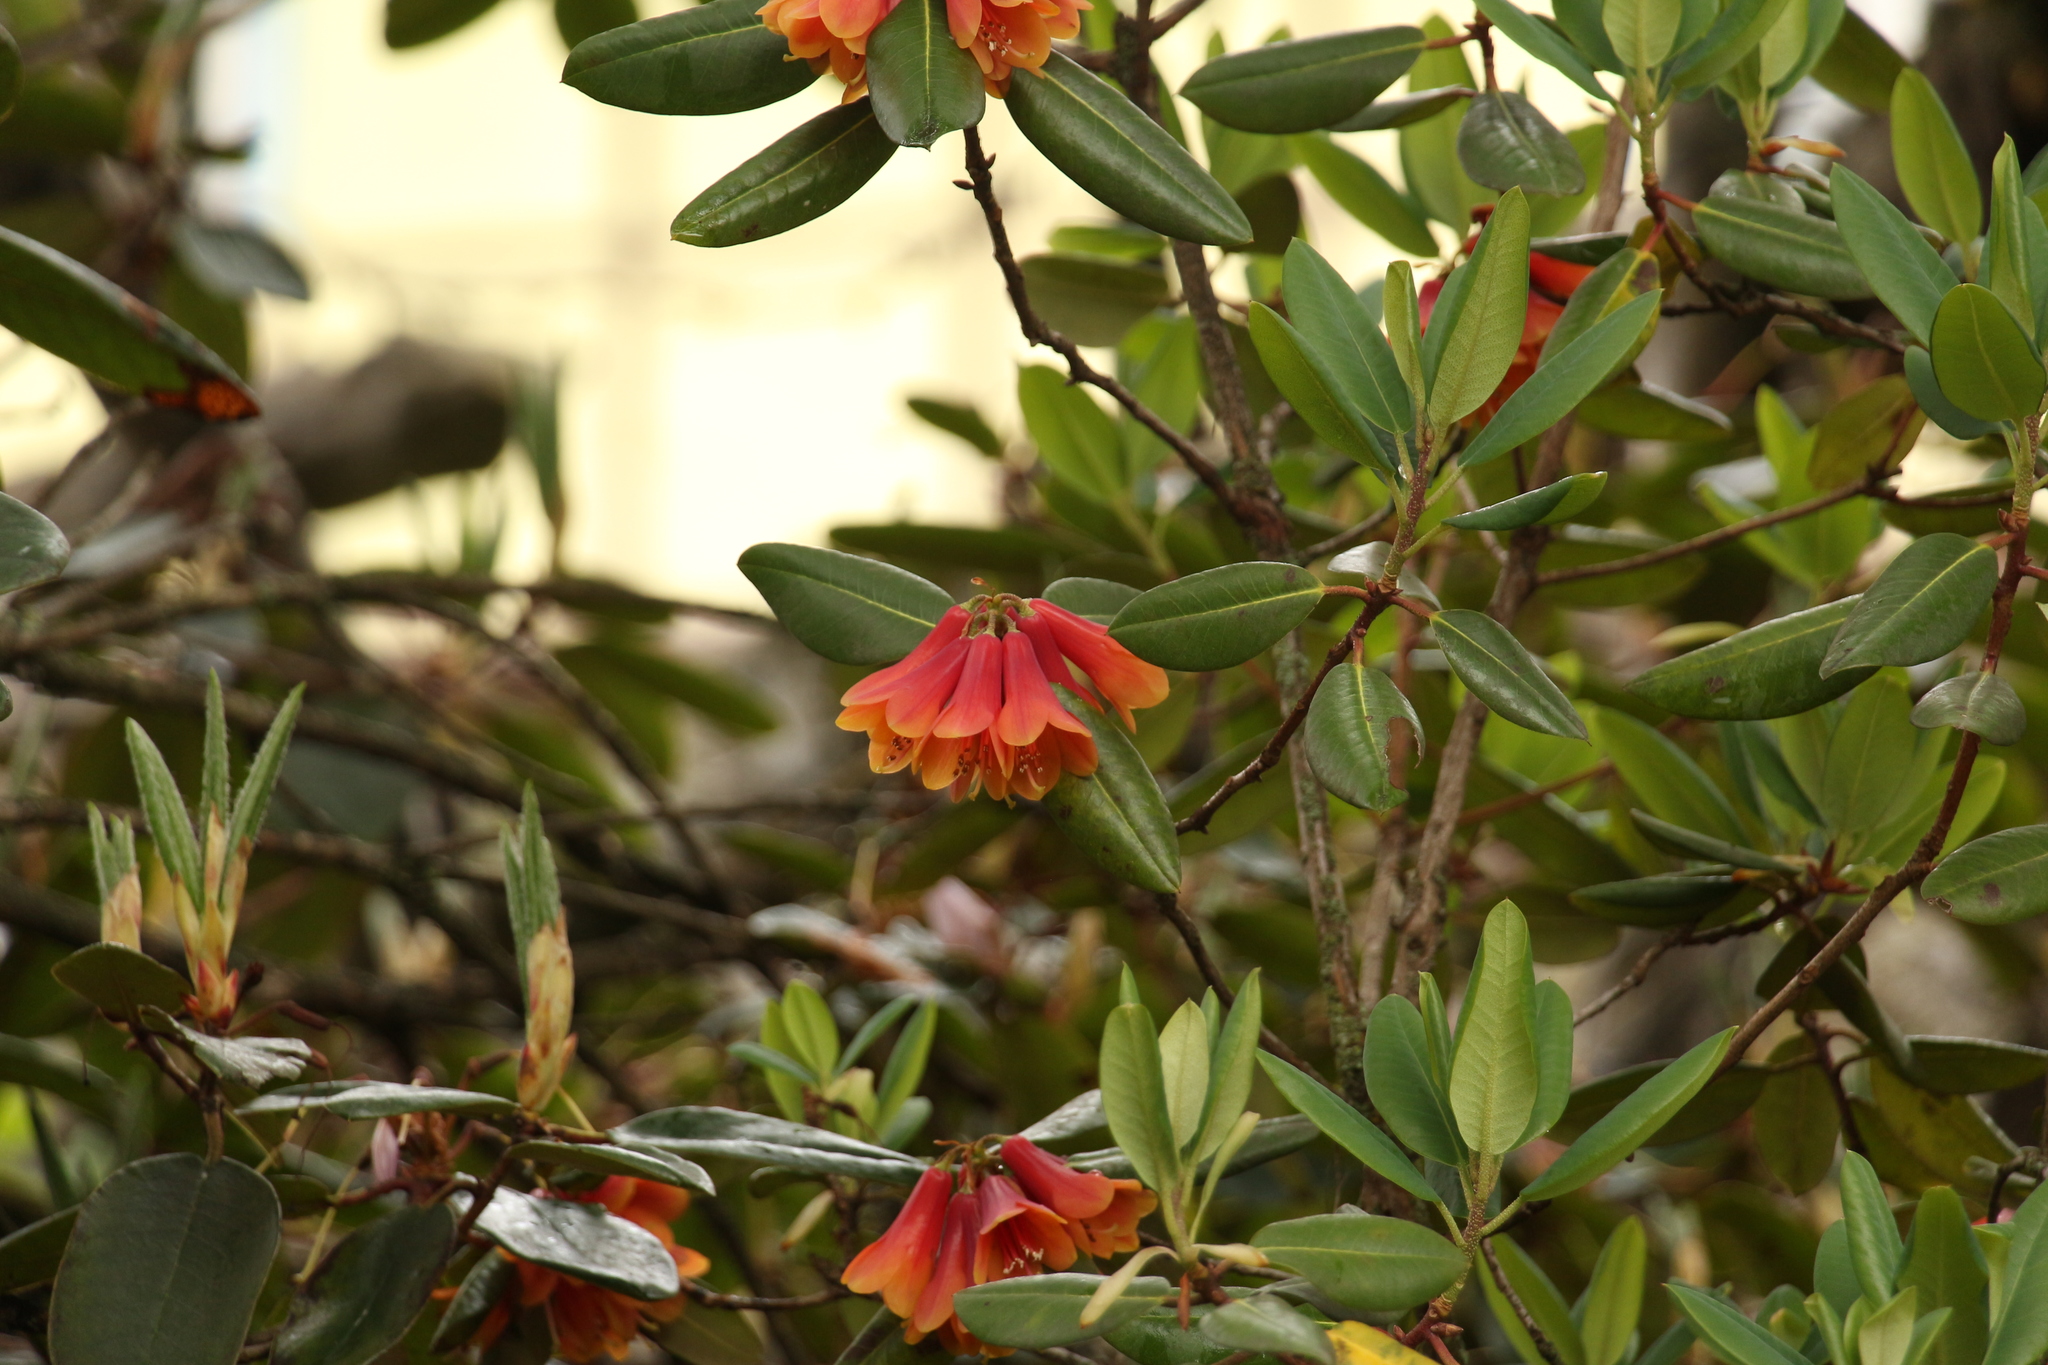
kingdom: Plantae
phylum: Tracheophyta
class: Magnoliopsida
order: Ericales
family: Ericaceae
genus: Rhododendron
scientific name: Rhododendron cinnabarinum
